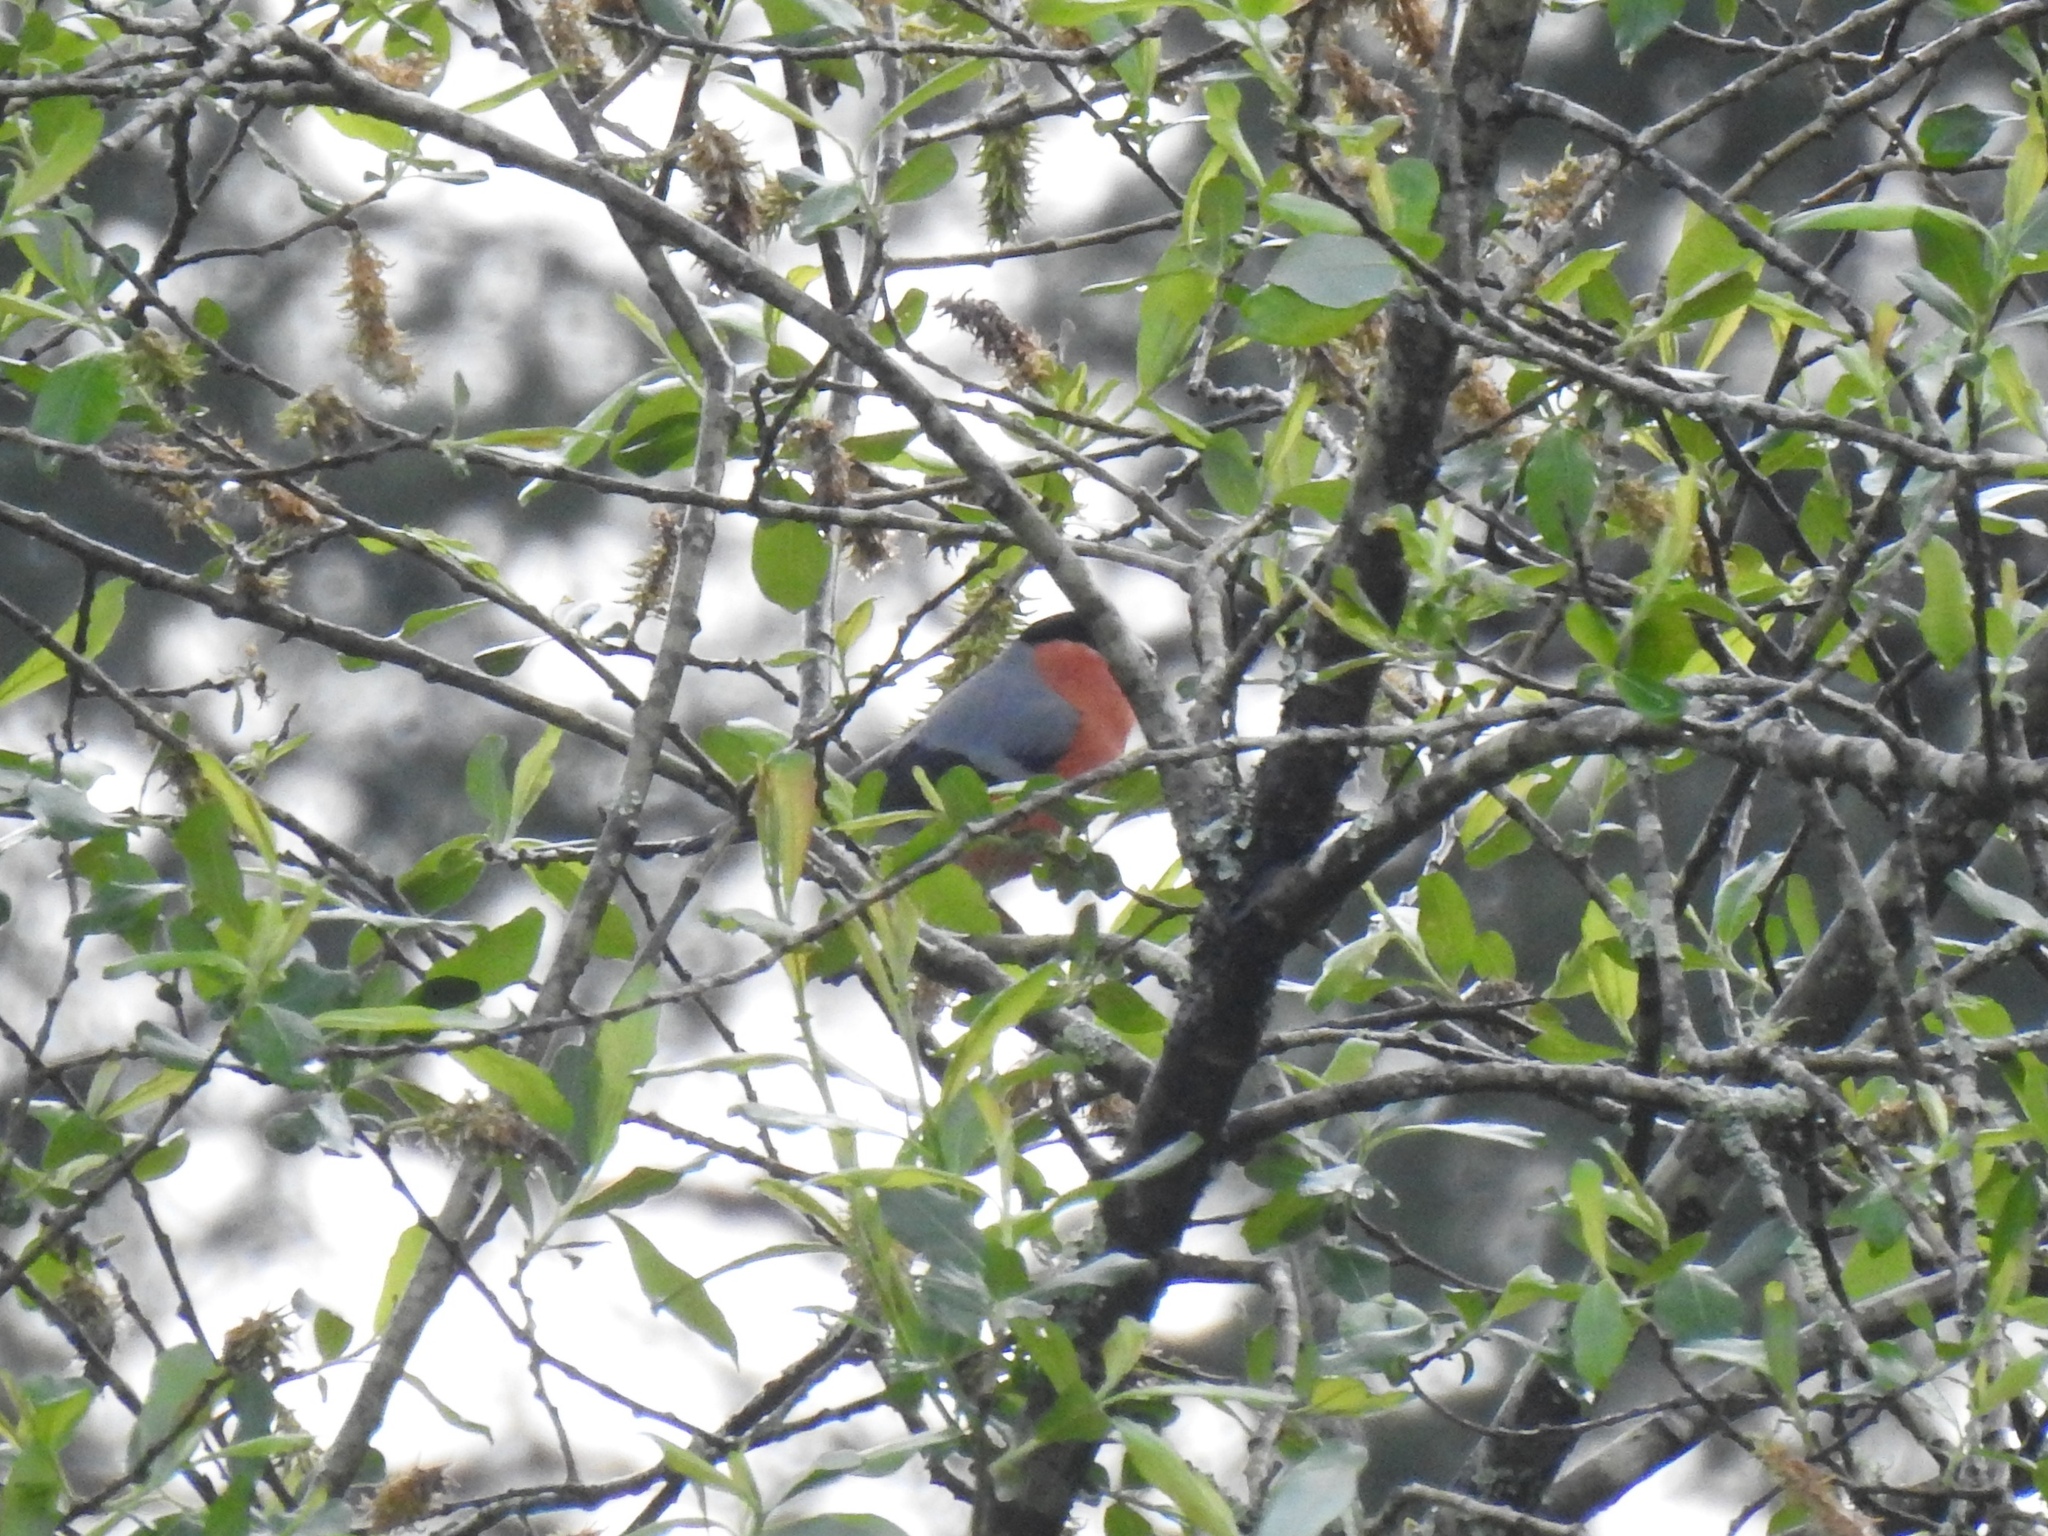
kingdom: Animalia
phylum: Chordata
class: Aves
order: Passeriformes
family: Fringillidae
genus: Pyrrhula
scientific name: Pyrrhula pyrrhula
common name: Eurasian bullfinch
